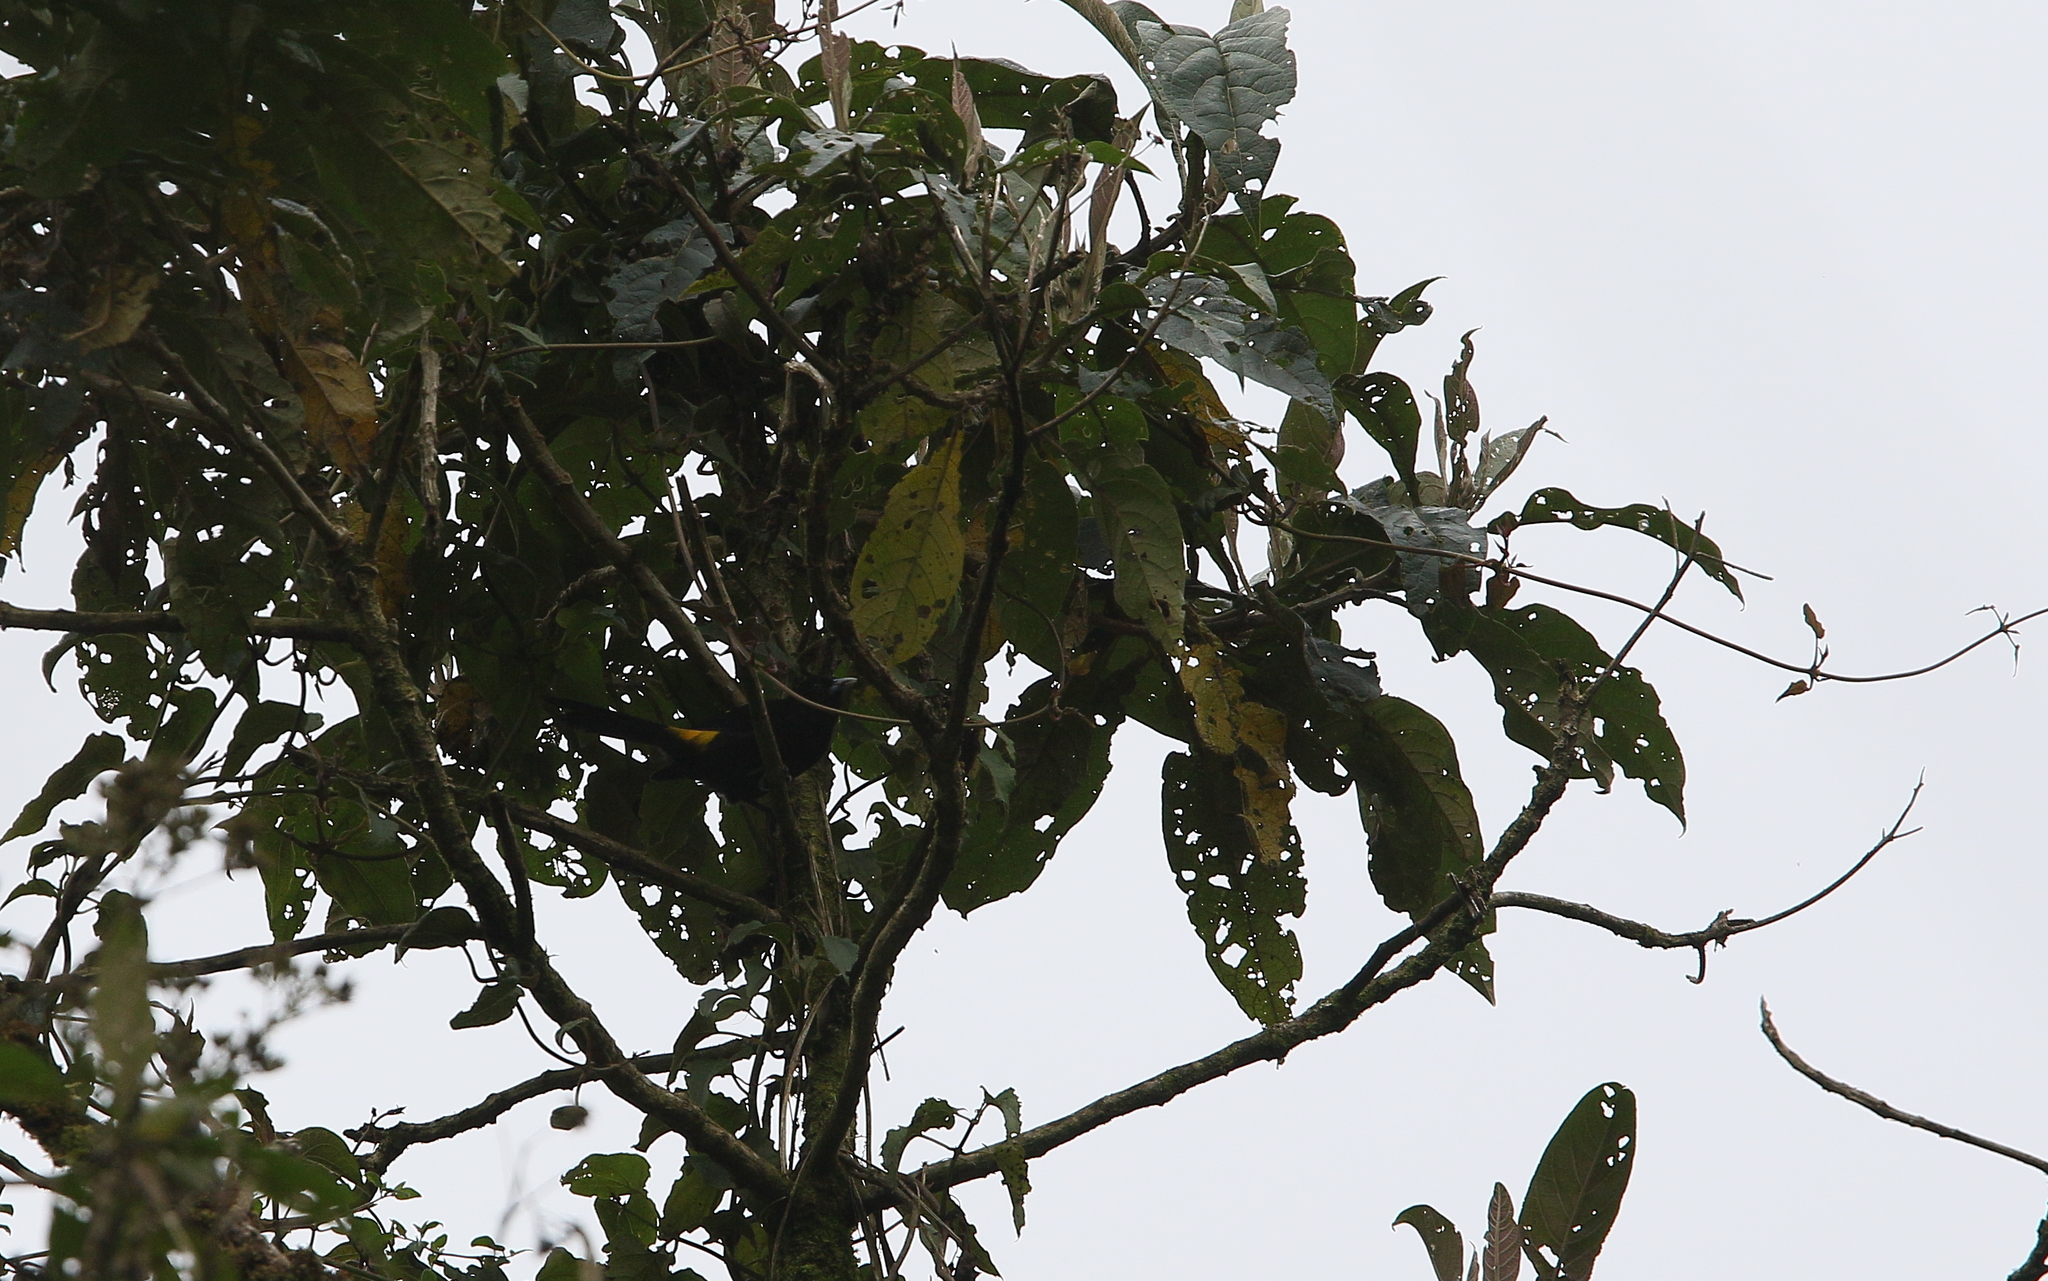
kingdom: Animalia
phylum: Chordata
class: Aves
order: Passeriformes
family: Icteridae
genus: Cacicus
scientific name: Cacicus chrysonotus
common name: Southern mountain cacique
